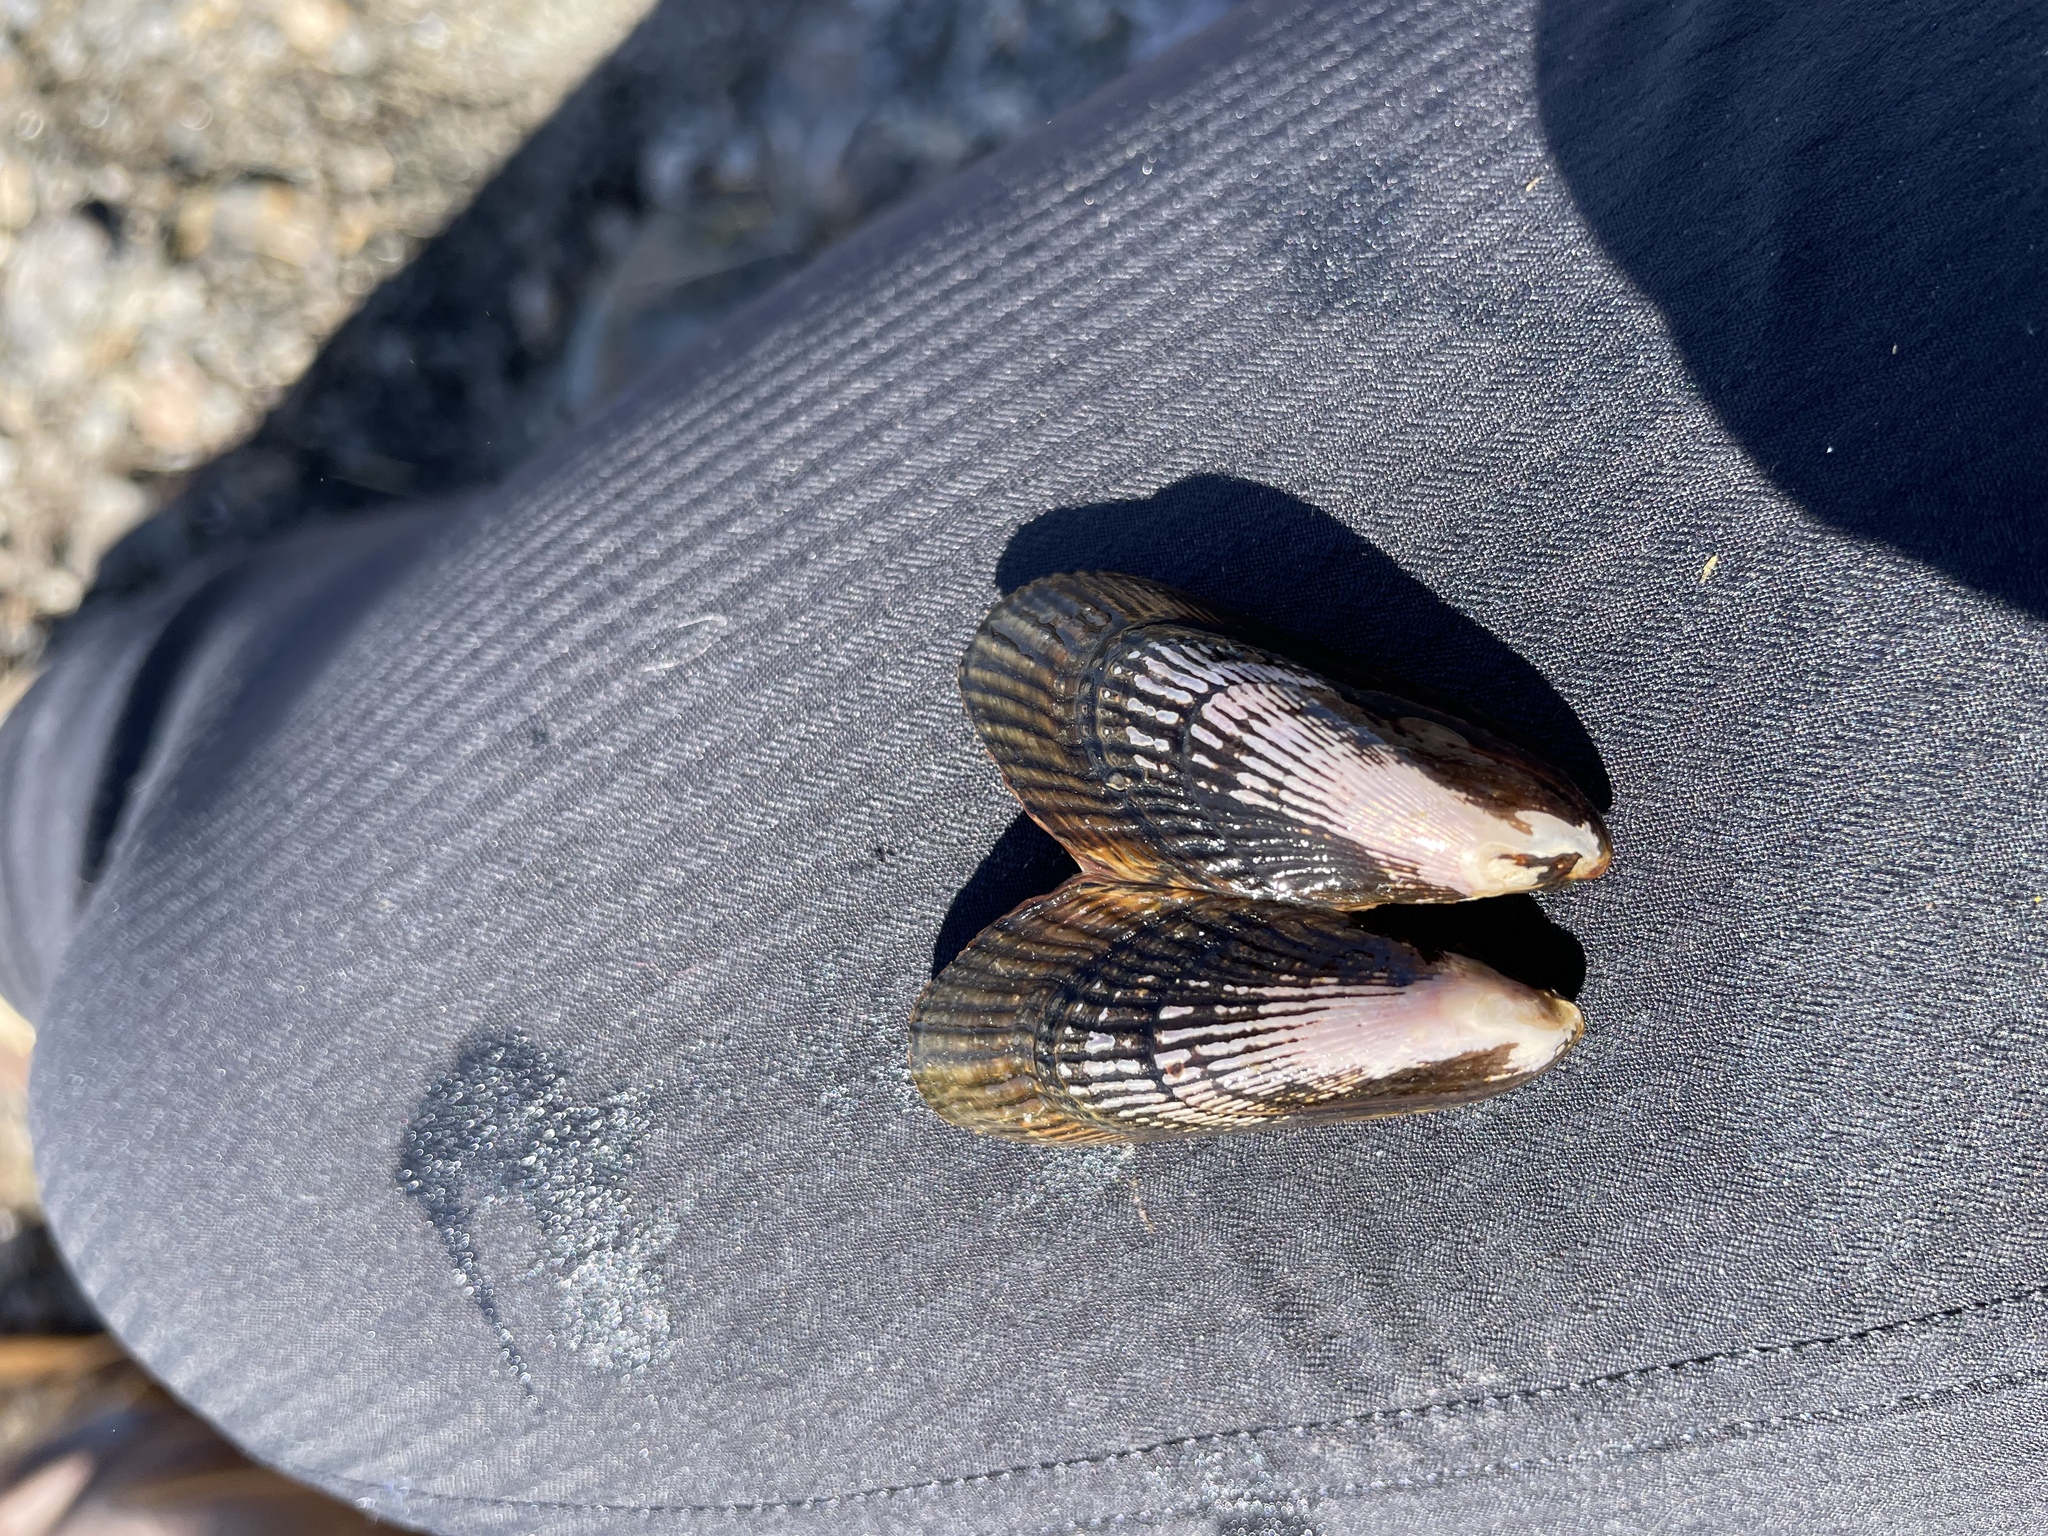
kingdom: Animalia
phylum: Mollusca
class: Bivalvia
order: Mytilida
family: Mytilidae
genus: Geukensia
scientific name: Geukensia demissa
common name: Ribbed mussel
